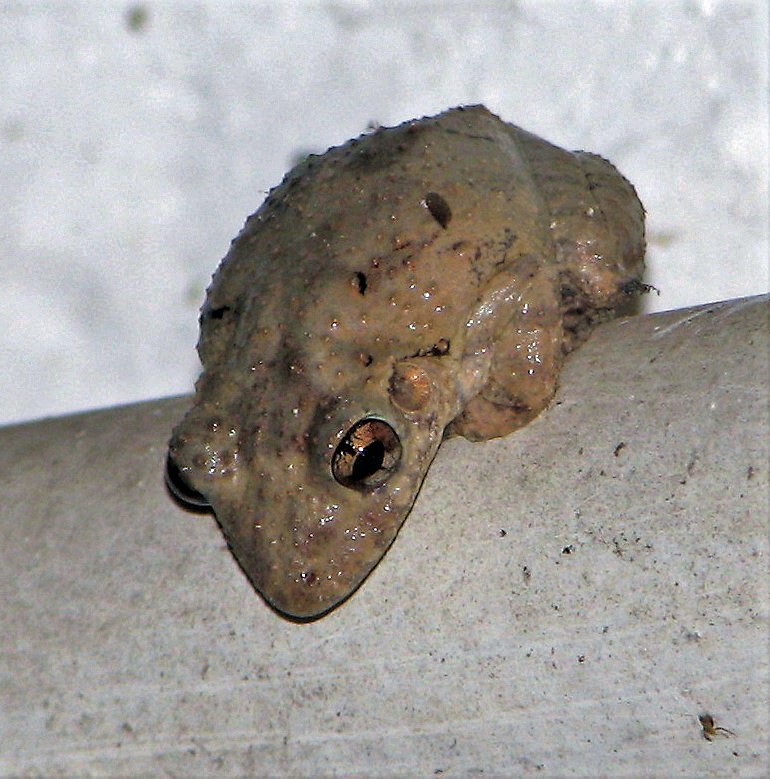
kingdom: Animalia
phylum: Chordata
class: Amphibia
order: Anura
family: Hylidae
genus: Scinax
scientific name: Scinax acuminatus
